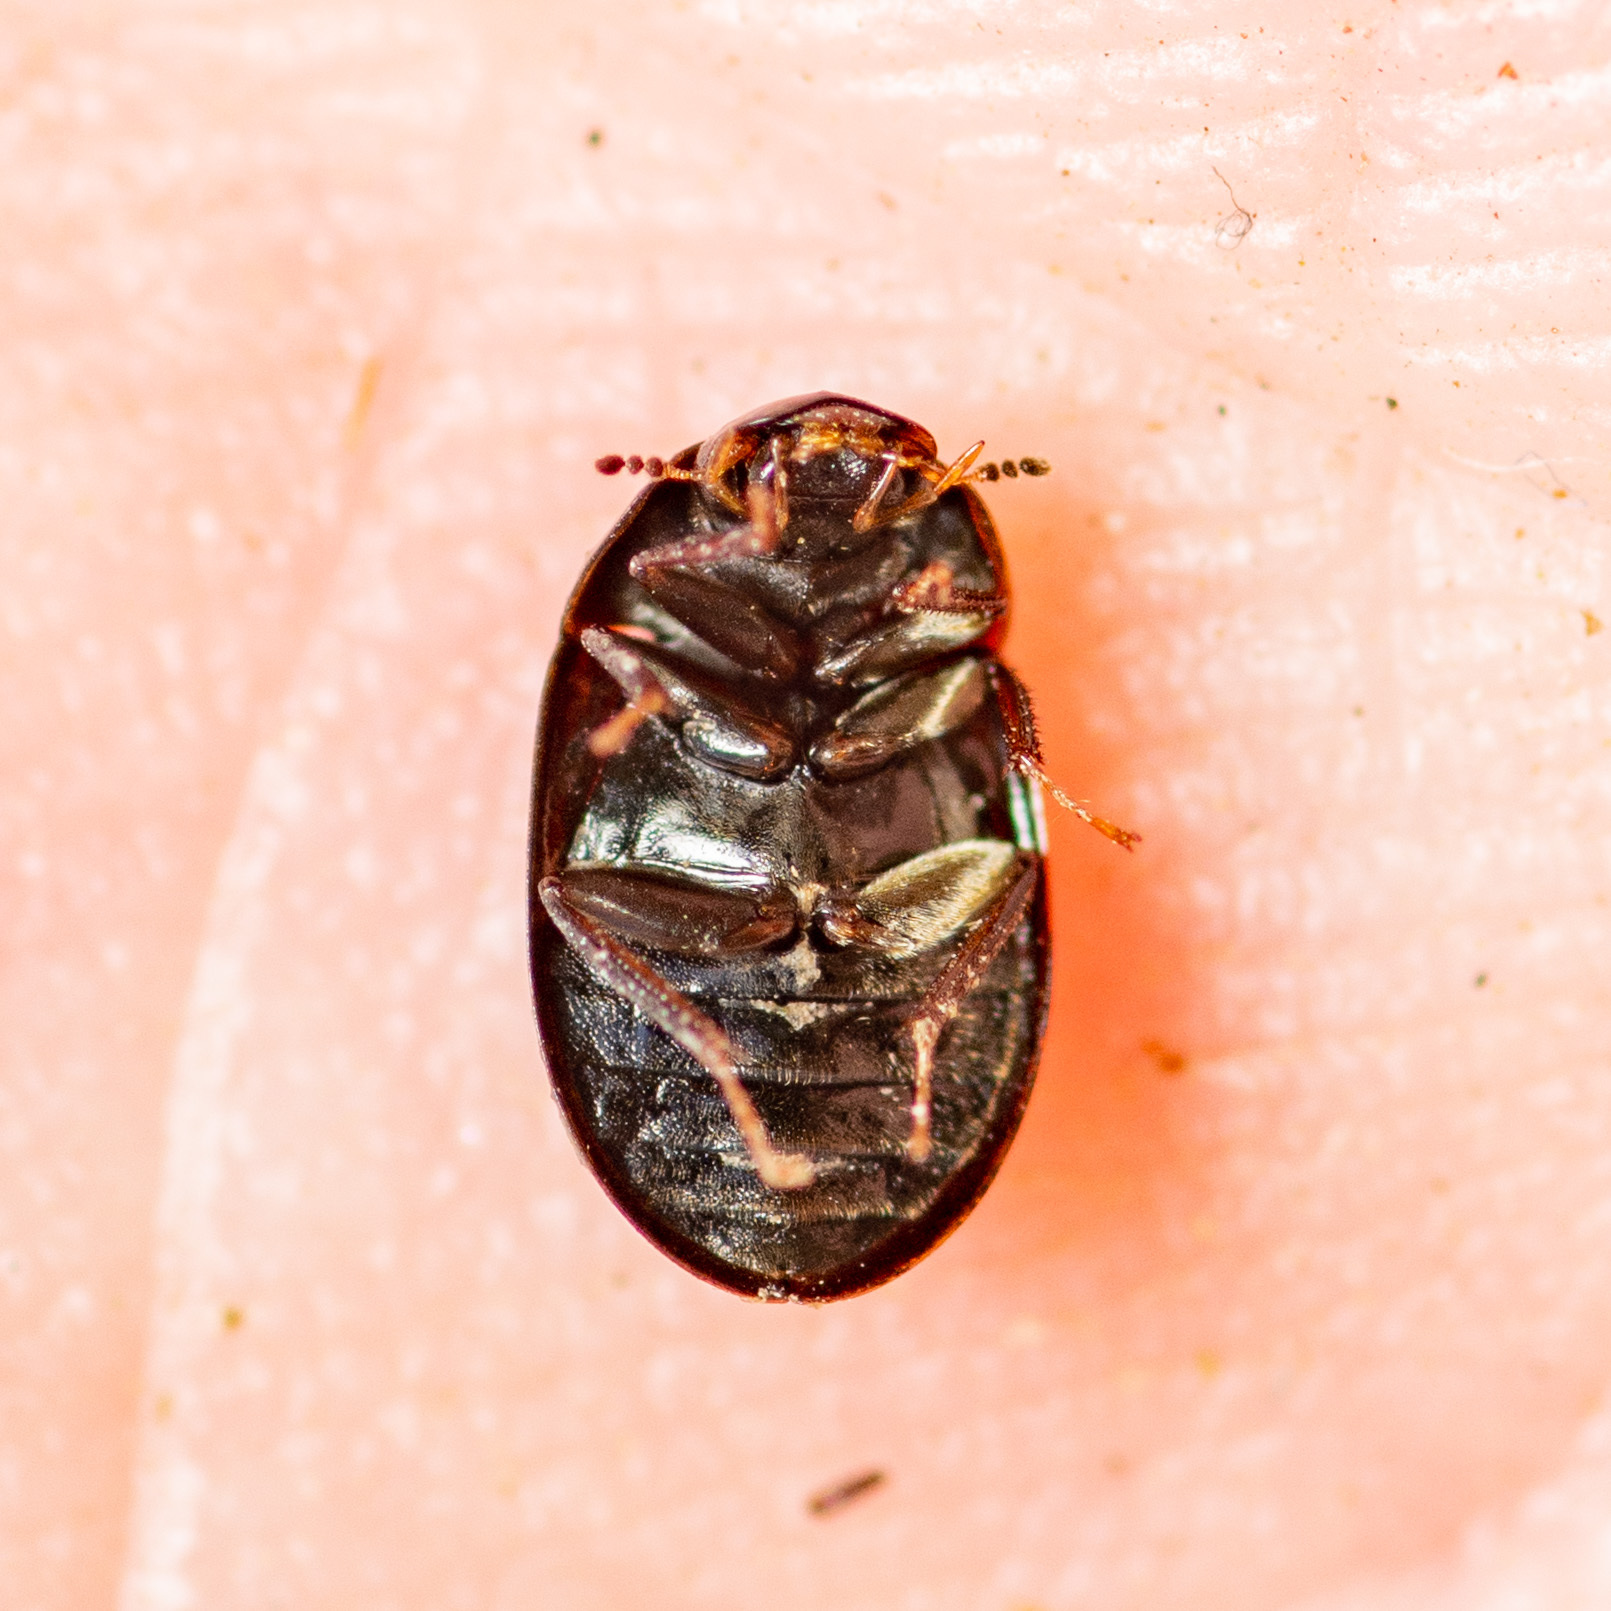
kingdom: Animalia
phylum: Arthropoda
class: Insecta
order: Coleoptera
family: Hydrophilidae
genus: Helochares
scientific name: Helochares normatus
